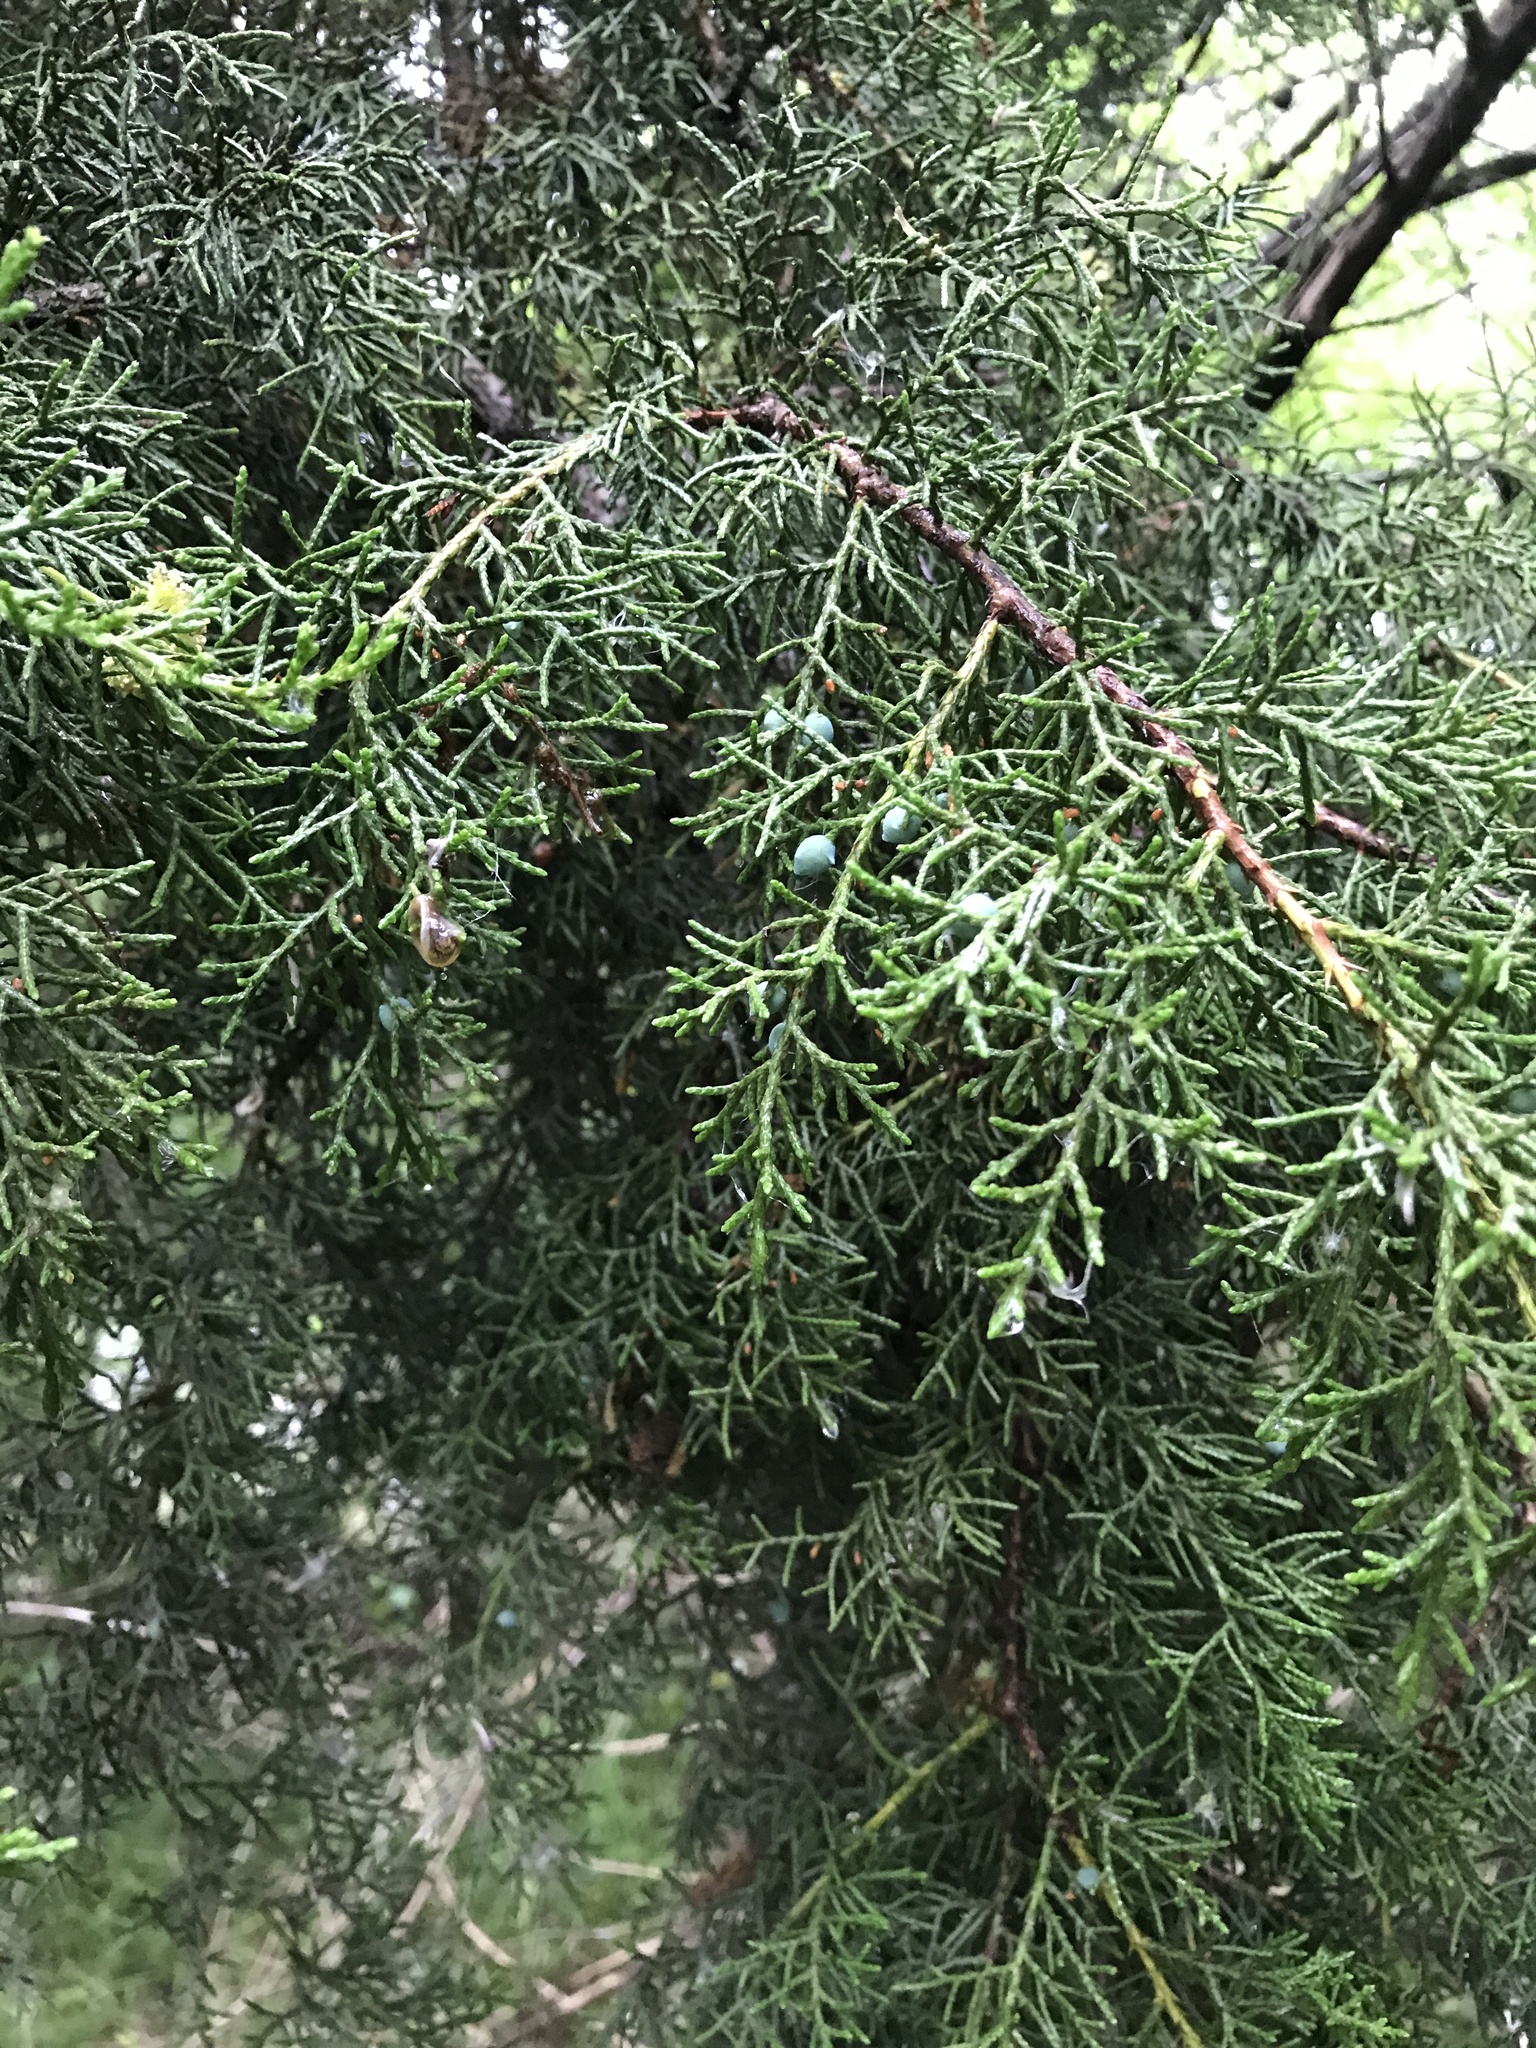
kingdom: Plantae
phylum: Tracheophyta
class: Pinopsida
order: Pinales
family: Cupressaceae
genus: Juniperus
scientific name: Juniperus ashei
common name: Mexican juniper
